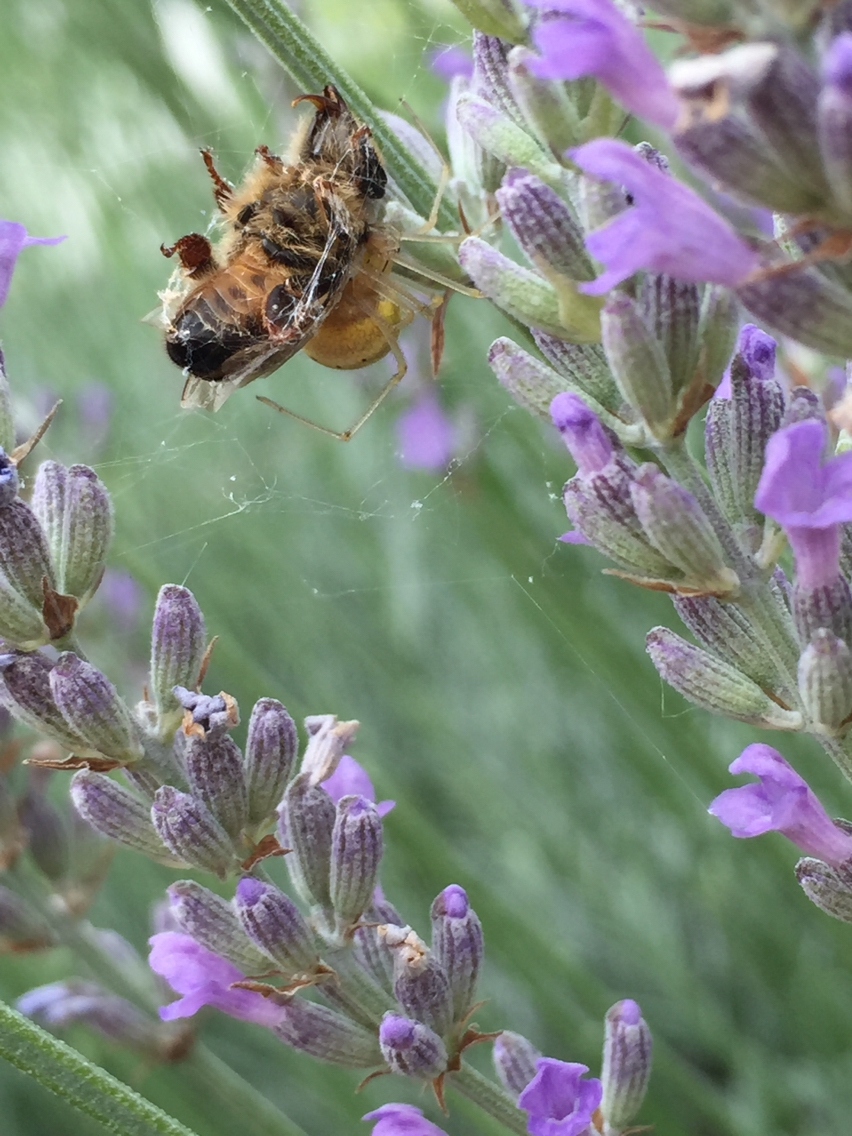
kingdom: Animalia
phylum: Arthropoda
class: Arachnida
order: Araneae
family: Theridiidae
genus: Enoplognatha
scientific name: Enoplognatha
